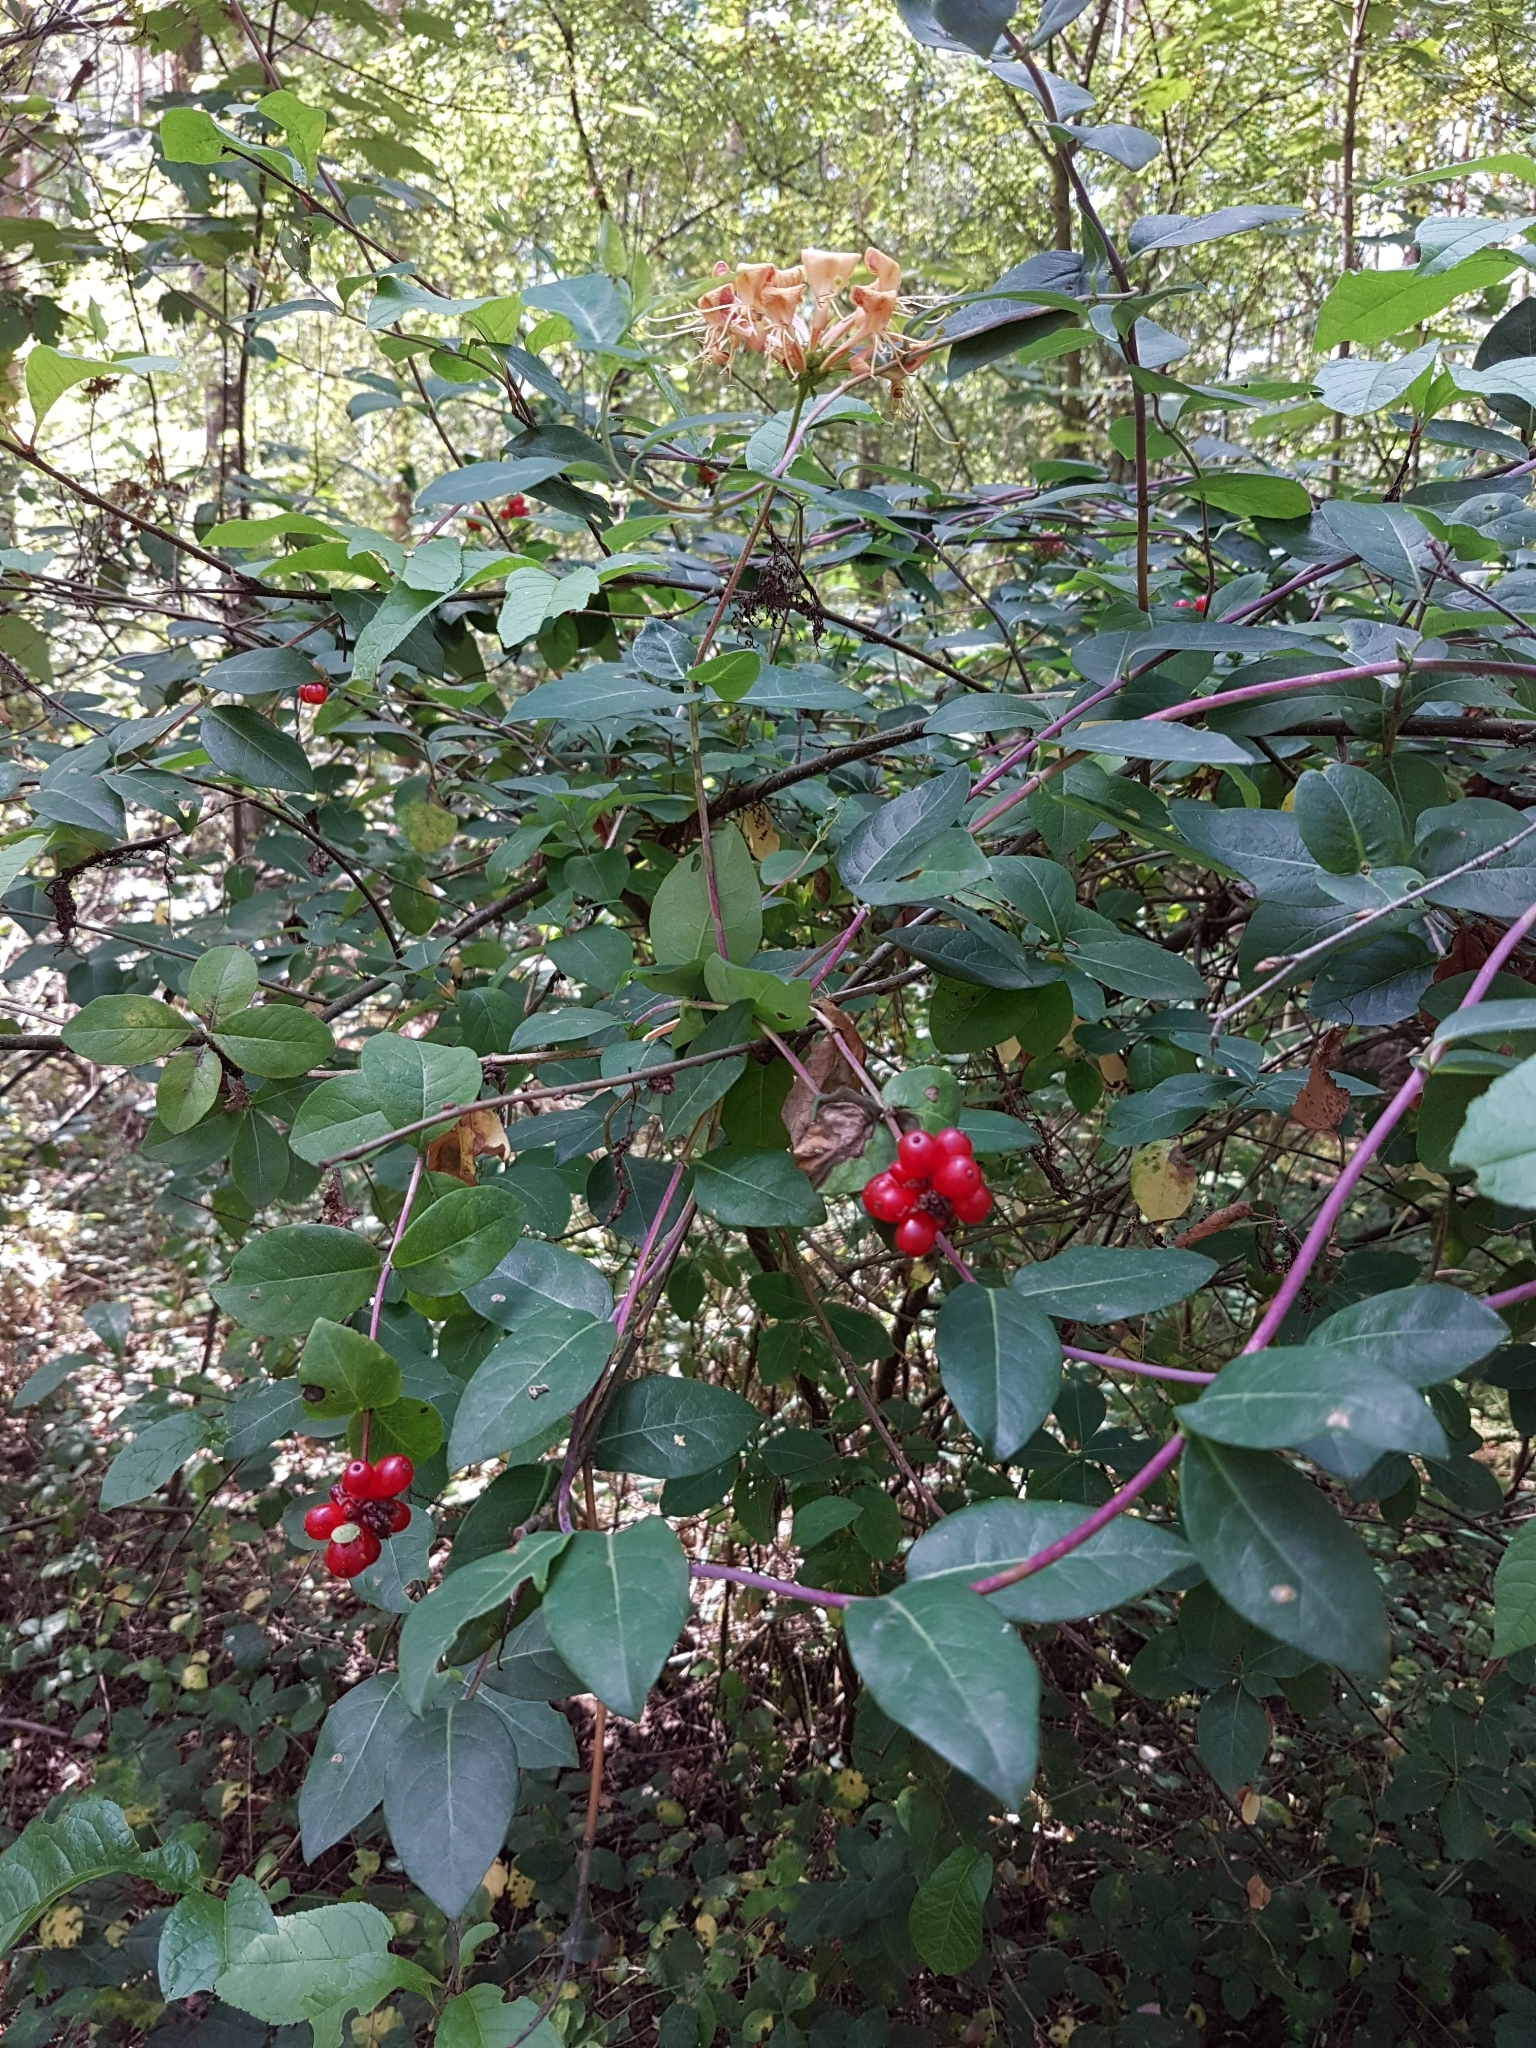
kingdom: Plantae
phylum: Tracheophyta
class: Magnoliopsida
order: Dipsacales
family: Caprifoliaceae
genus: Lonicera
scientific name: Lonicera periclymenum
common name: European honeysuckle
